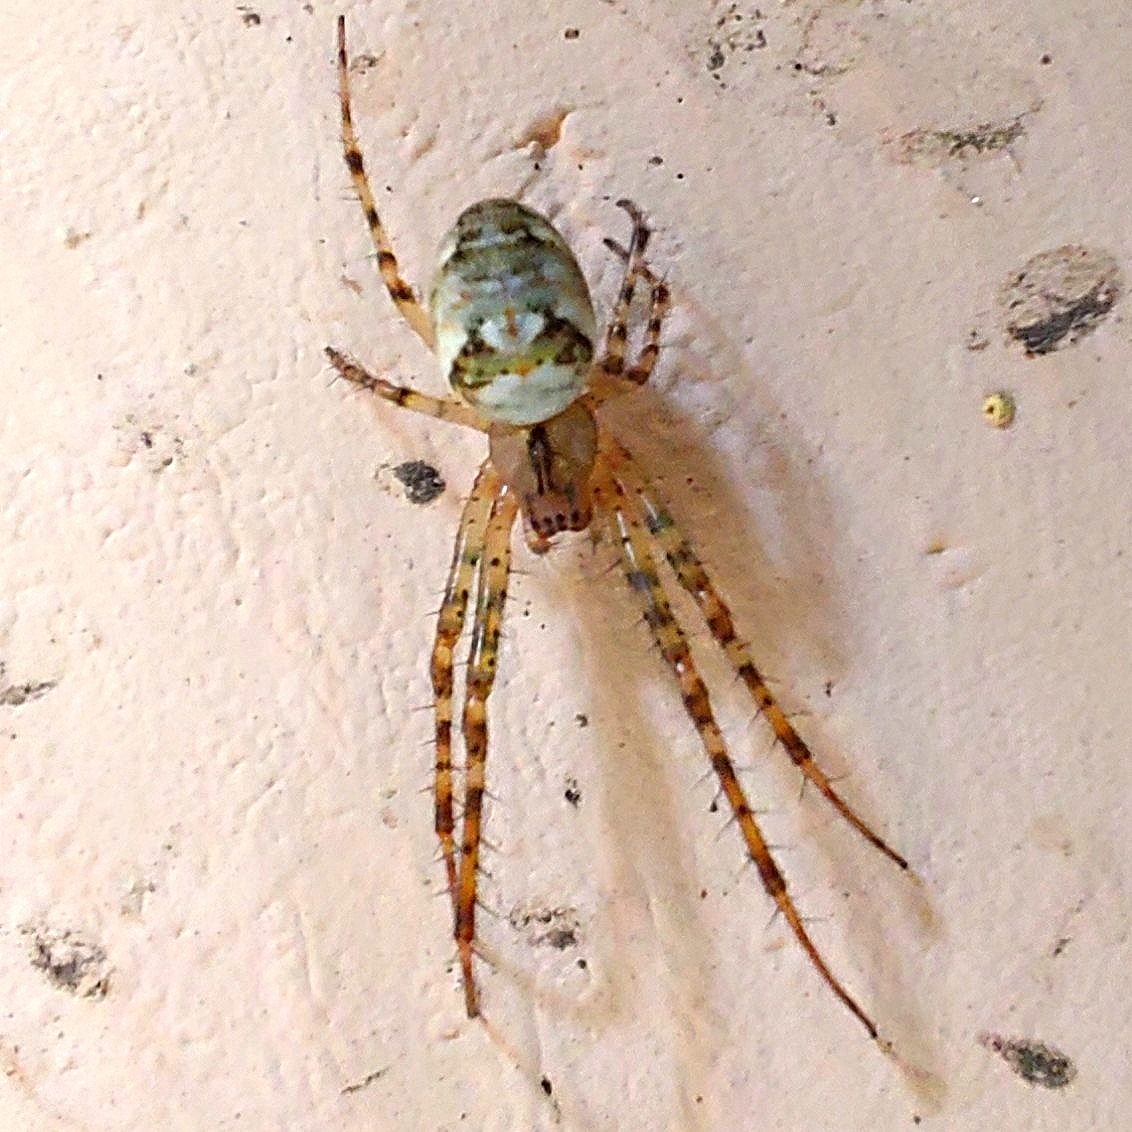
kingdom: Animalia
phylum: Arthropoda
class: Arachnida
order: Araneae
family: Tetragnathidae
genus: Metellina
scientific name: Metellina
